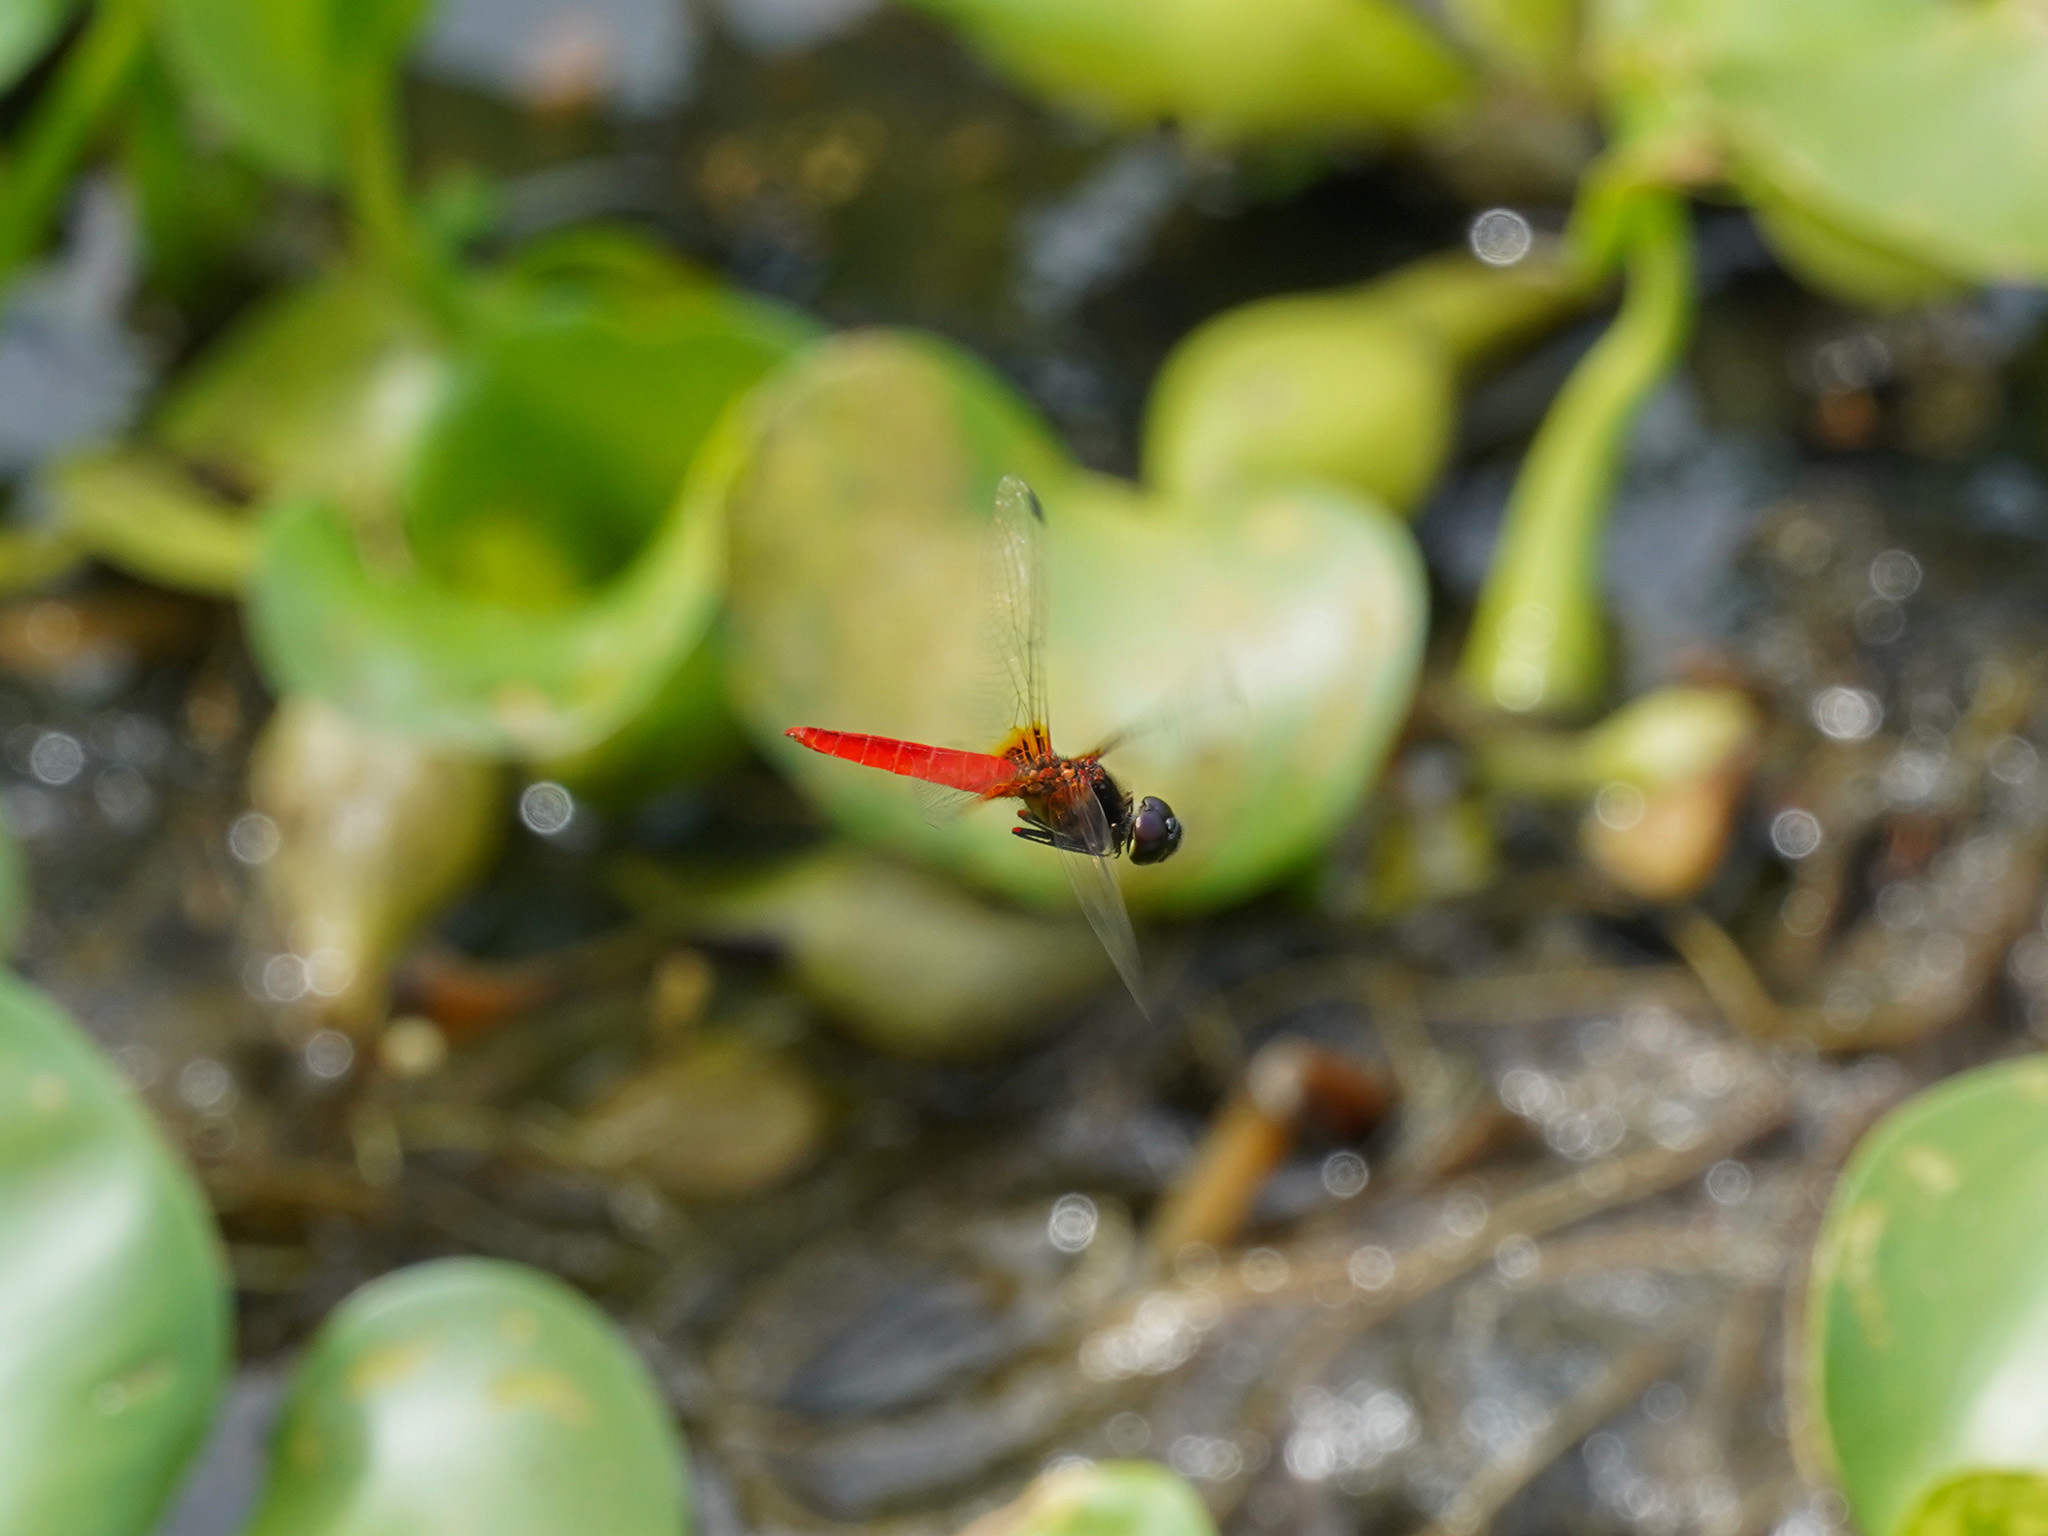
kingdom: Animalia
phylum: Arthropoda
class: Insecta
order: Odonata
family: Libellulidae
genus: Aethriamanta
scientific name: Aethriamanta brevipennis
